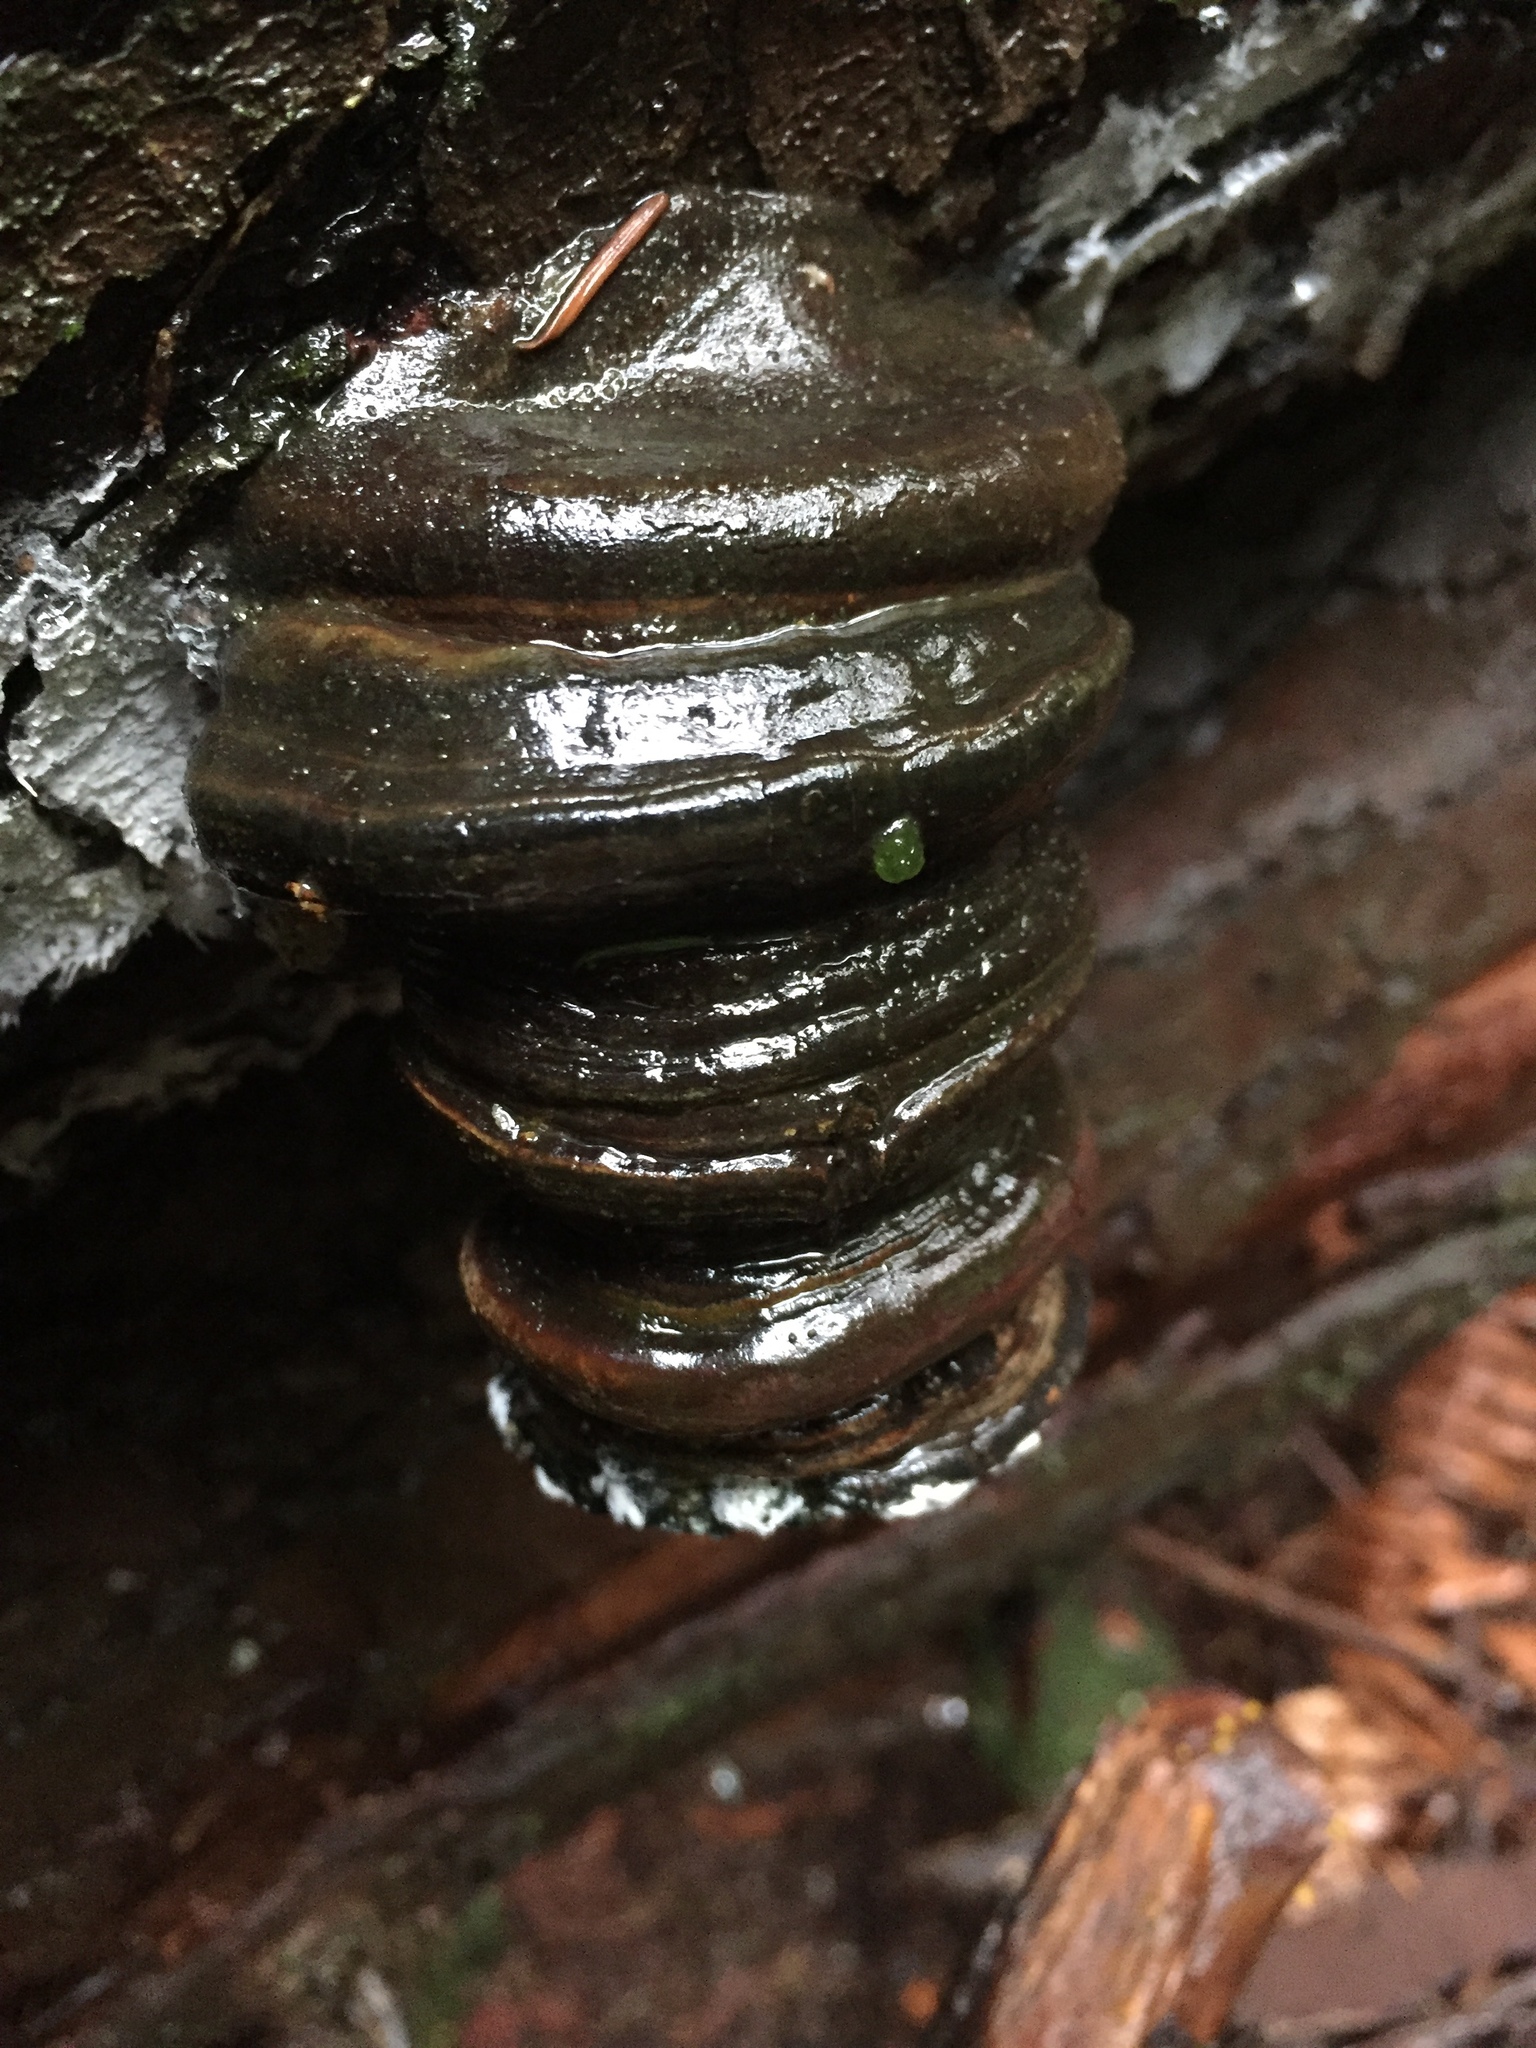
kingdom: Fungi
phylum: Basidiomycota
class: Agaricomycetes
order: Polyporales
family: Polyporaceae
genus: Fomes
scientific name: Fomes fomentarius
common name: Hoof fungus
